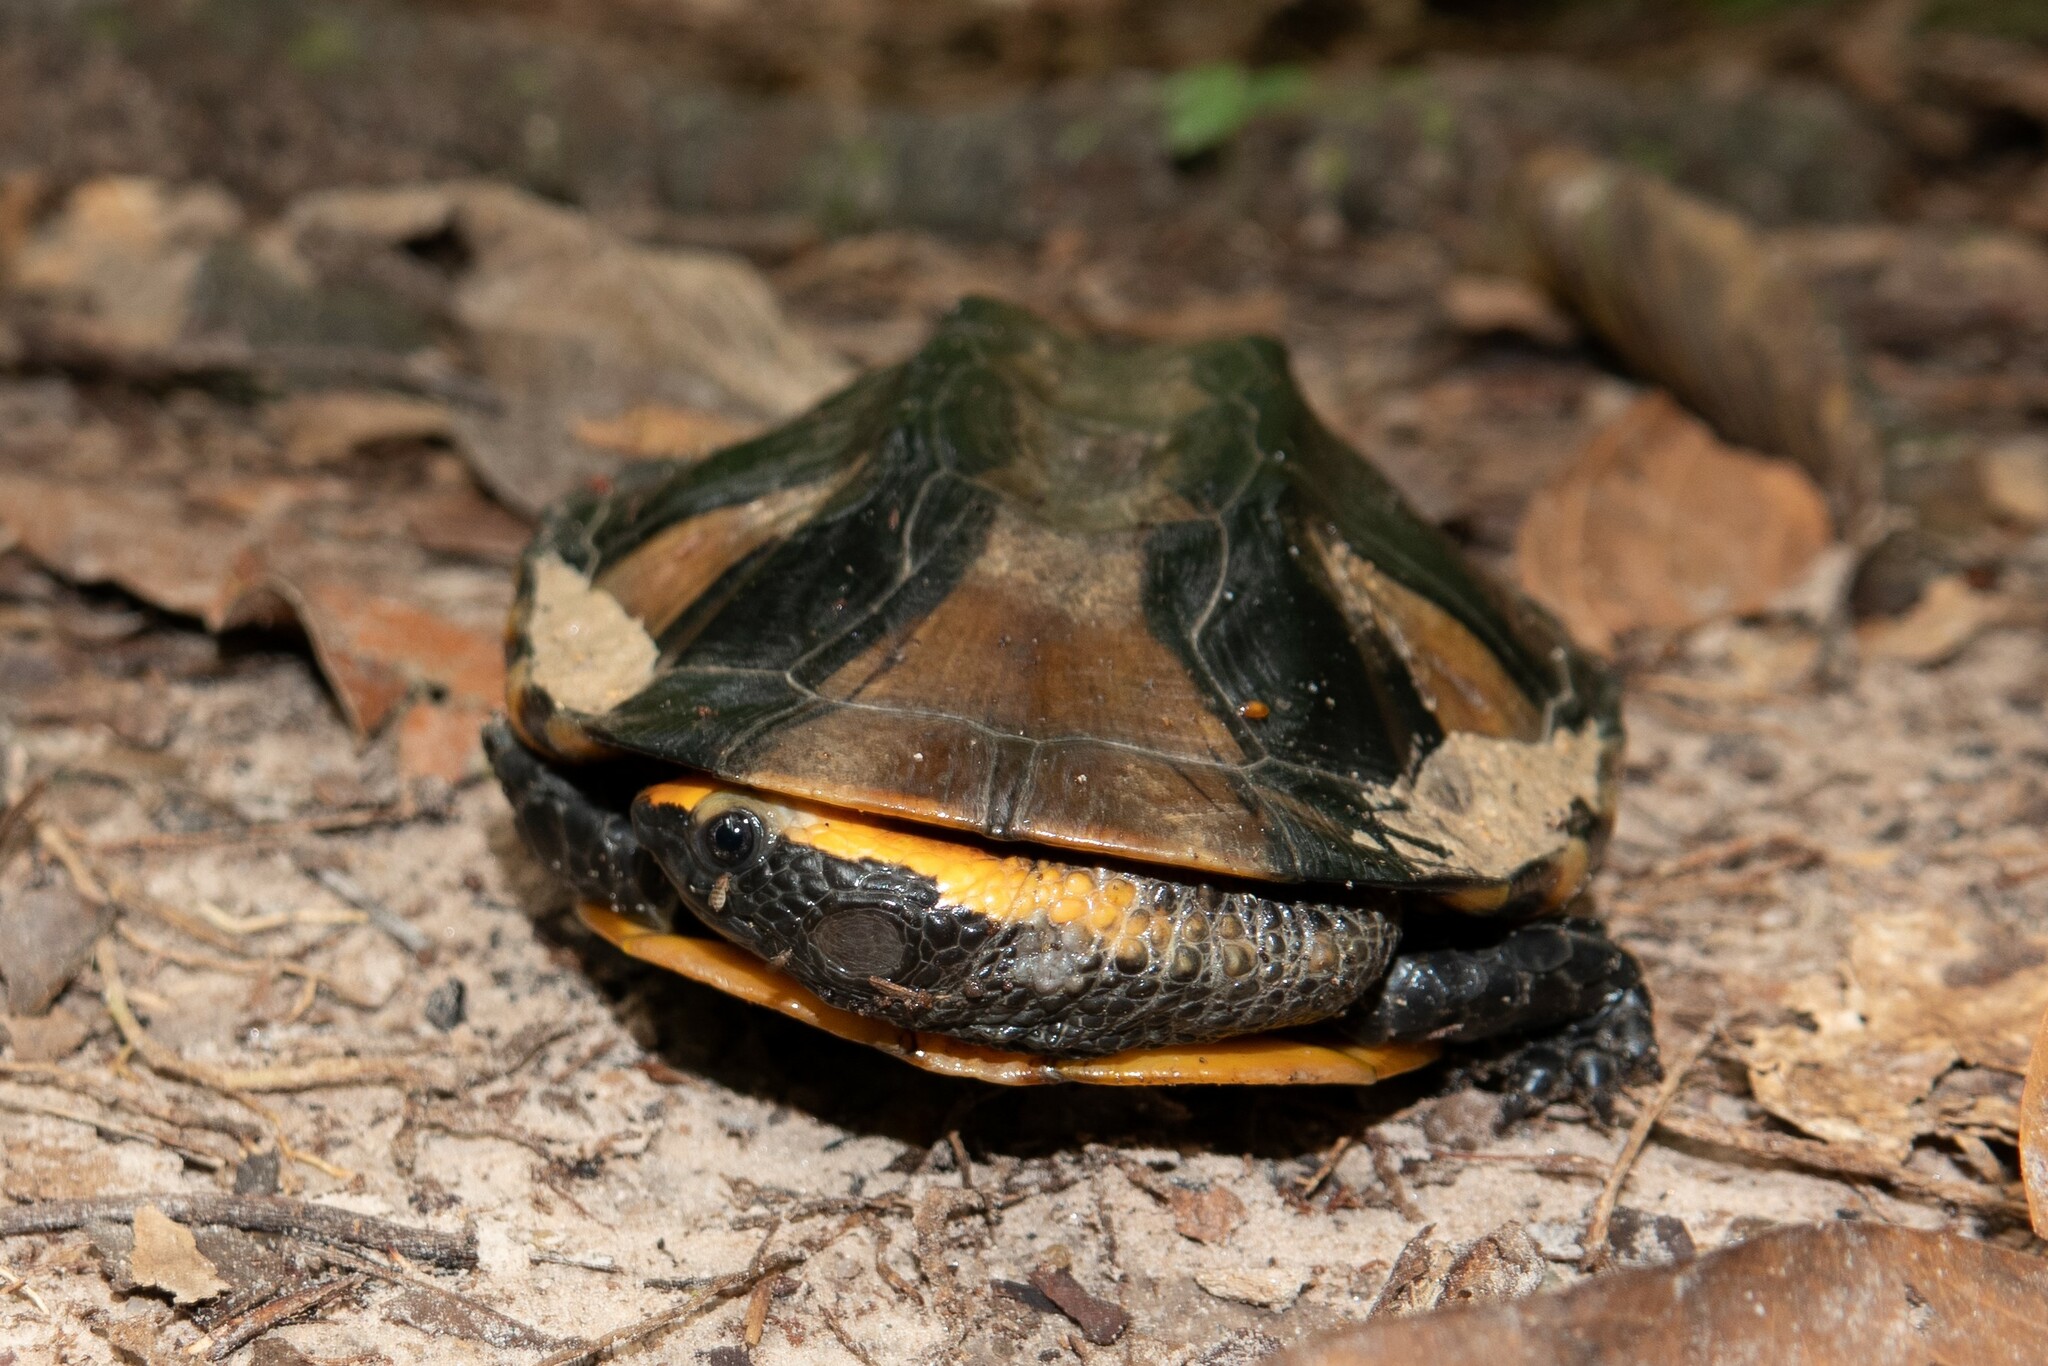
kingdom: Animalia
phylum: Chordata
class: Testudines
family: Chelidae
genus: Platemys
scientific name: Platemys platycephala
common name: Twistneck turtle
